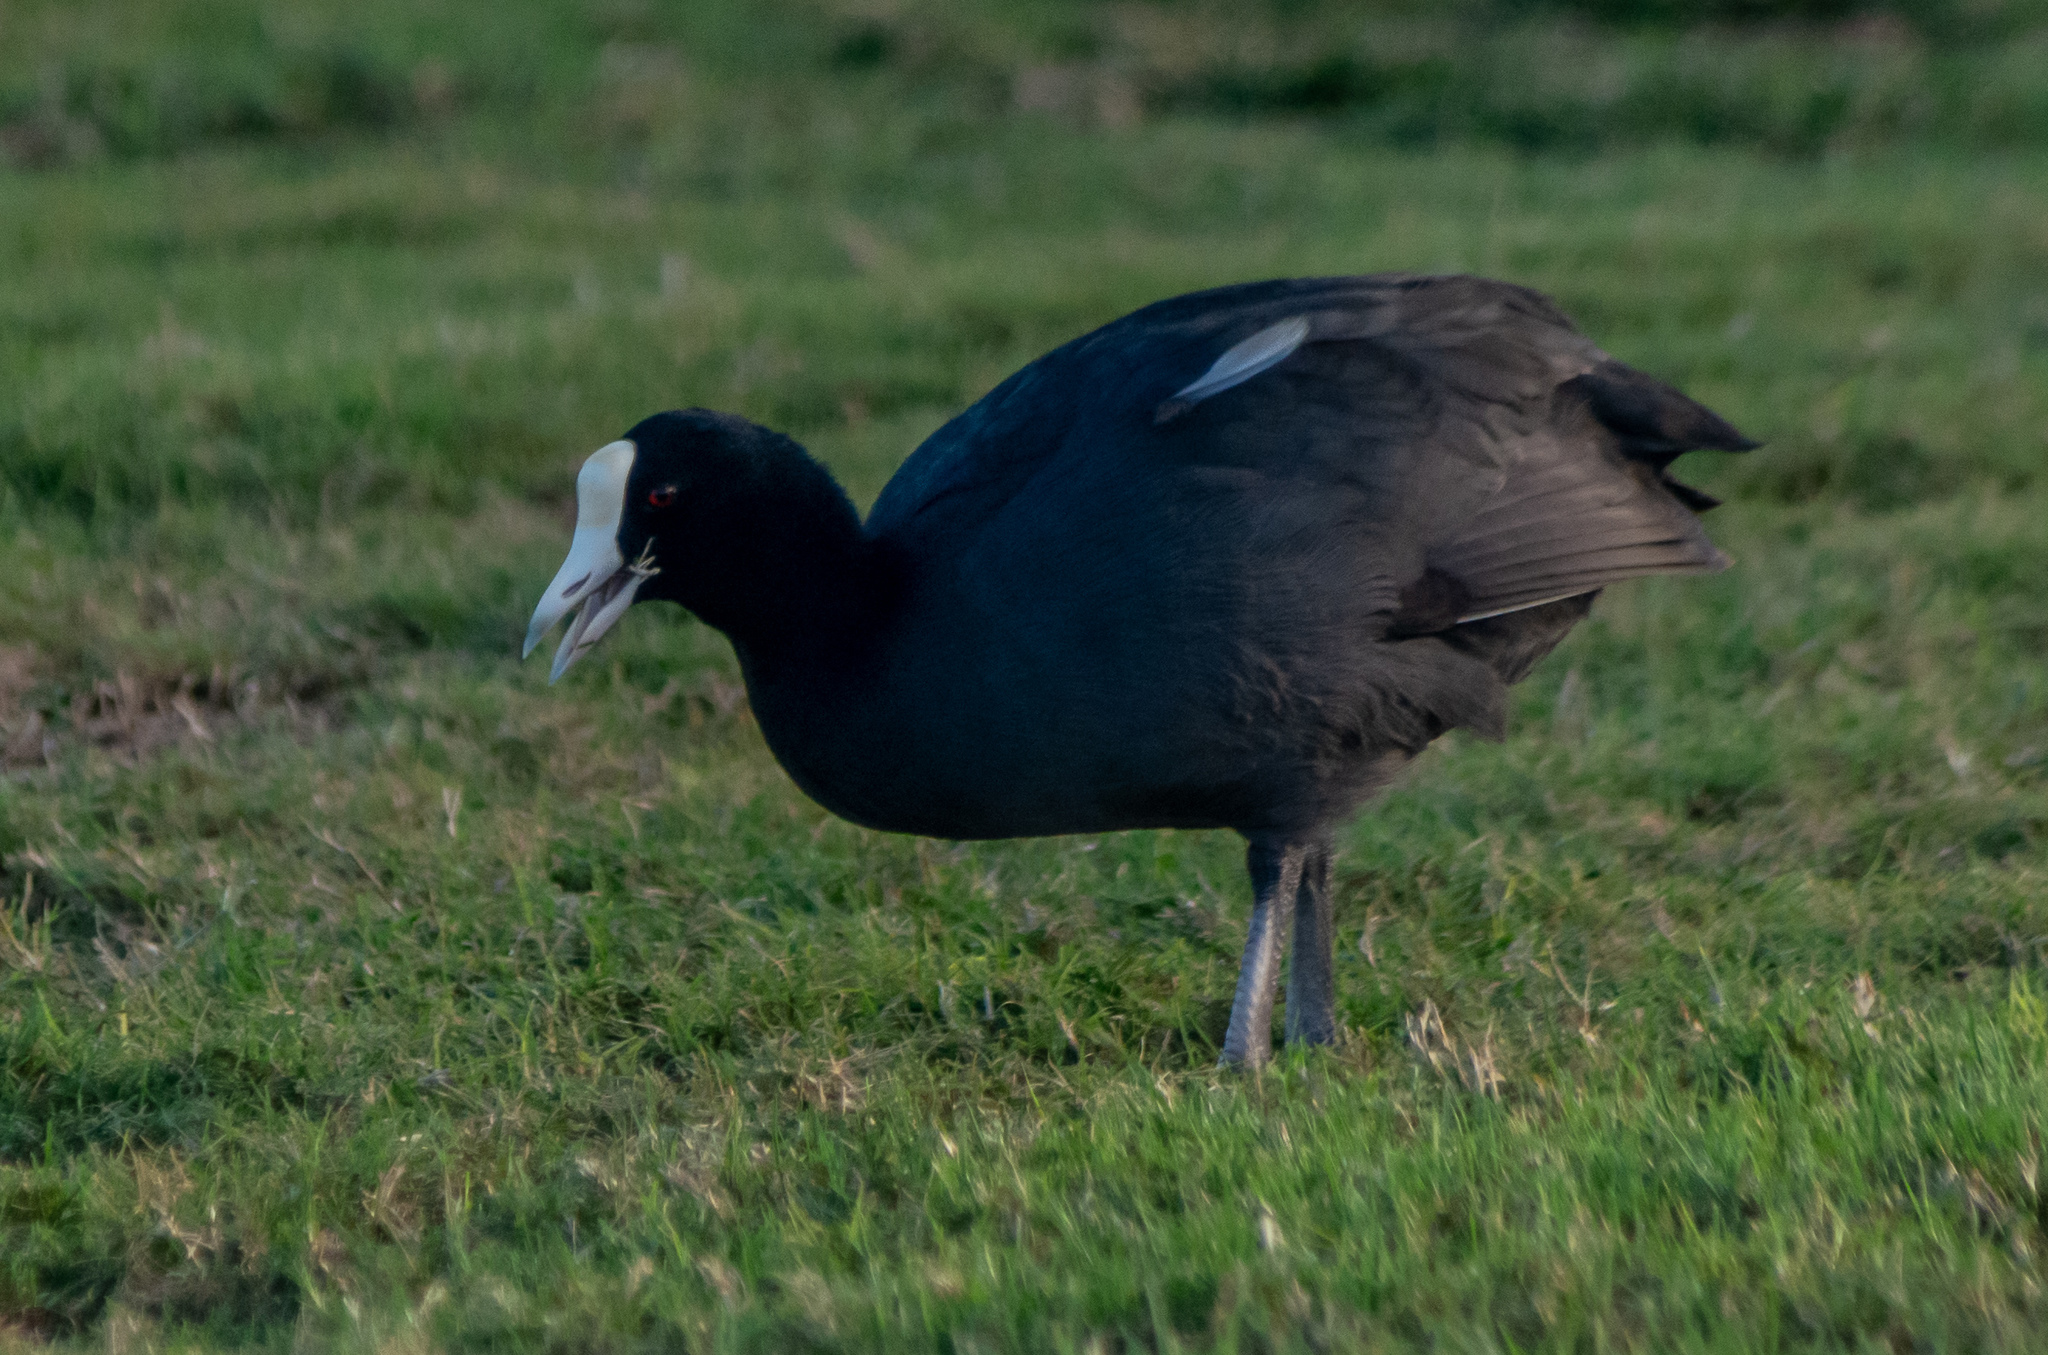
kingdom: Animalia
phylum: Chordata
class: Aves
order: Gruiformes
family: Rallidae
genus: Fulica
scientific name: Fulica alai
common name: Hawaiian coot
